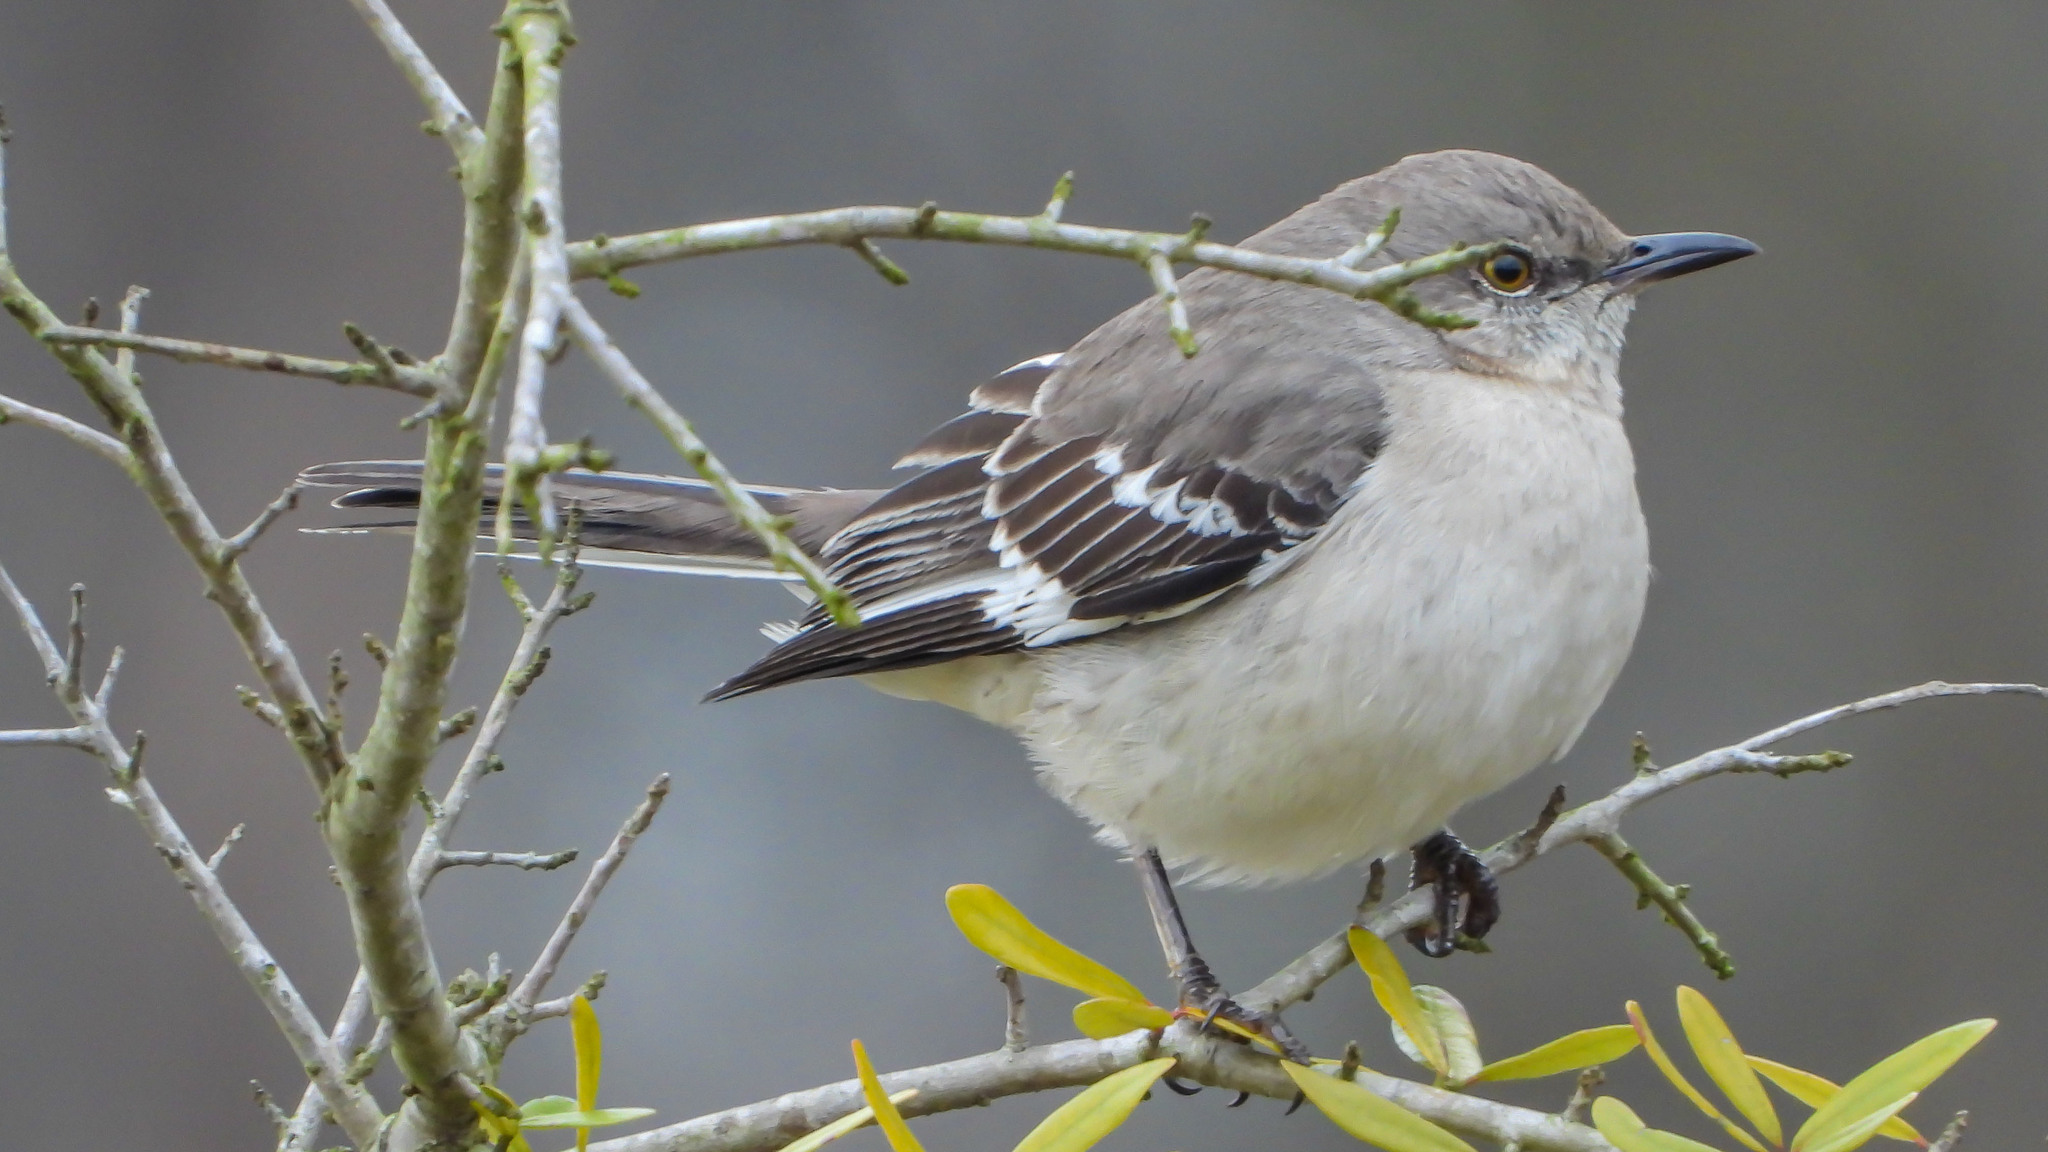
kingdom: Animalia
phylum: Chordata
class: Aves
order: Passeriformes
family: Mimidae
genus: Mimus
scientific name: Mimus polyglottos
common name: Northern mockingbird
